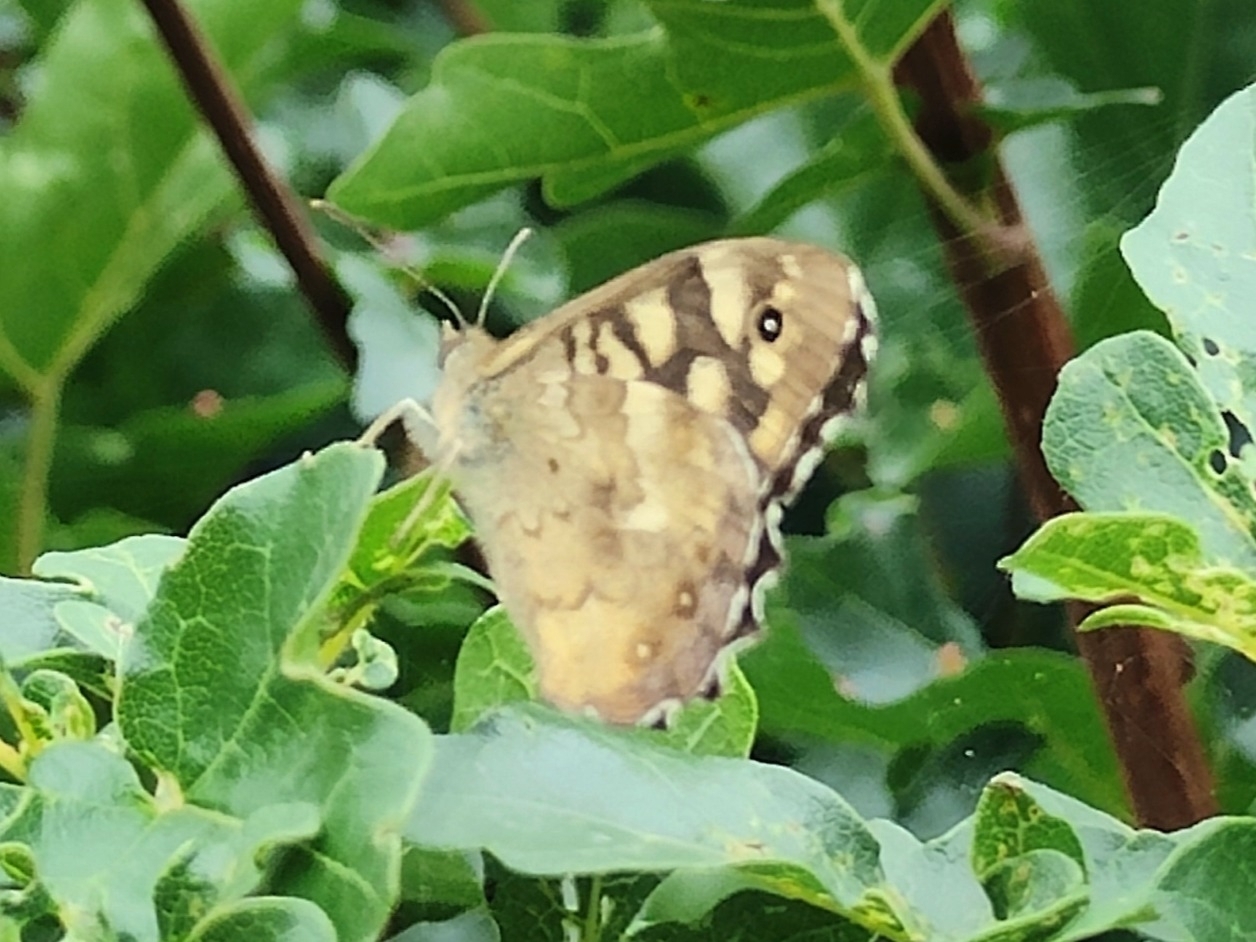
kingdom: Animalia
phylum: Arthropoda
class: Insecta
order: Lepidoptera
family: Nymphalidae
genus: Pararge
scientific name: Pararge aegeria
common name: Speckled wood
